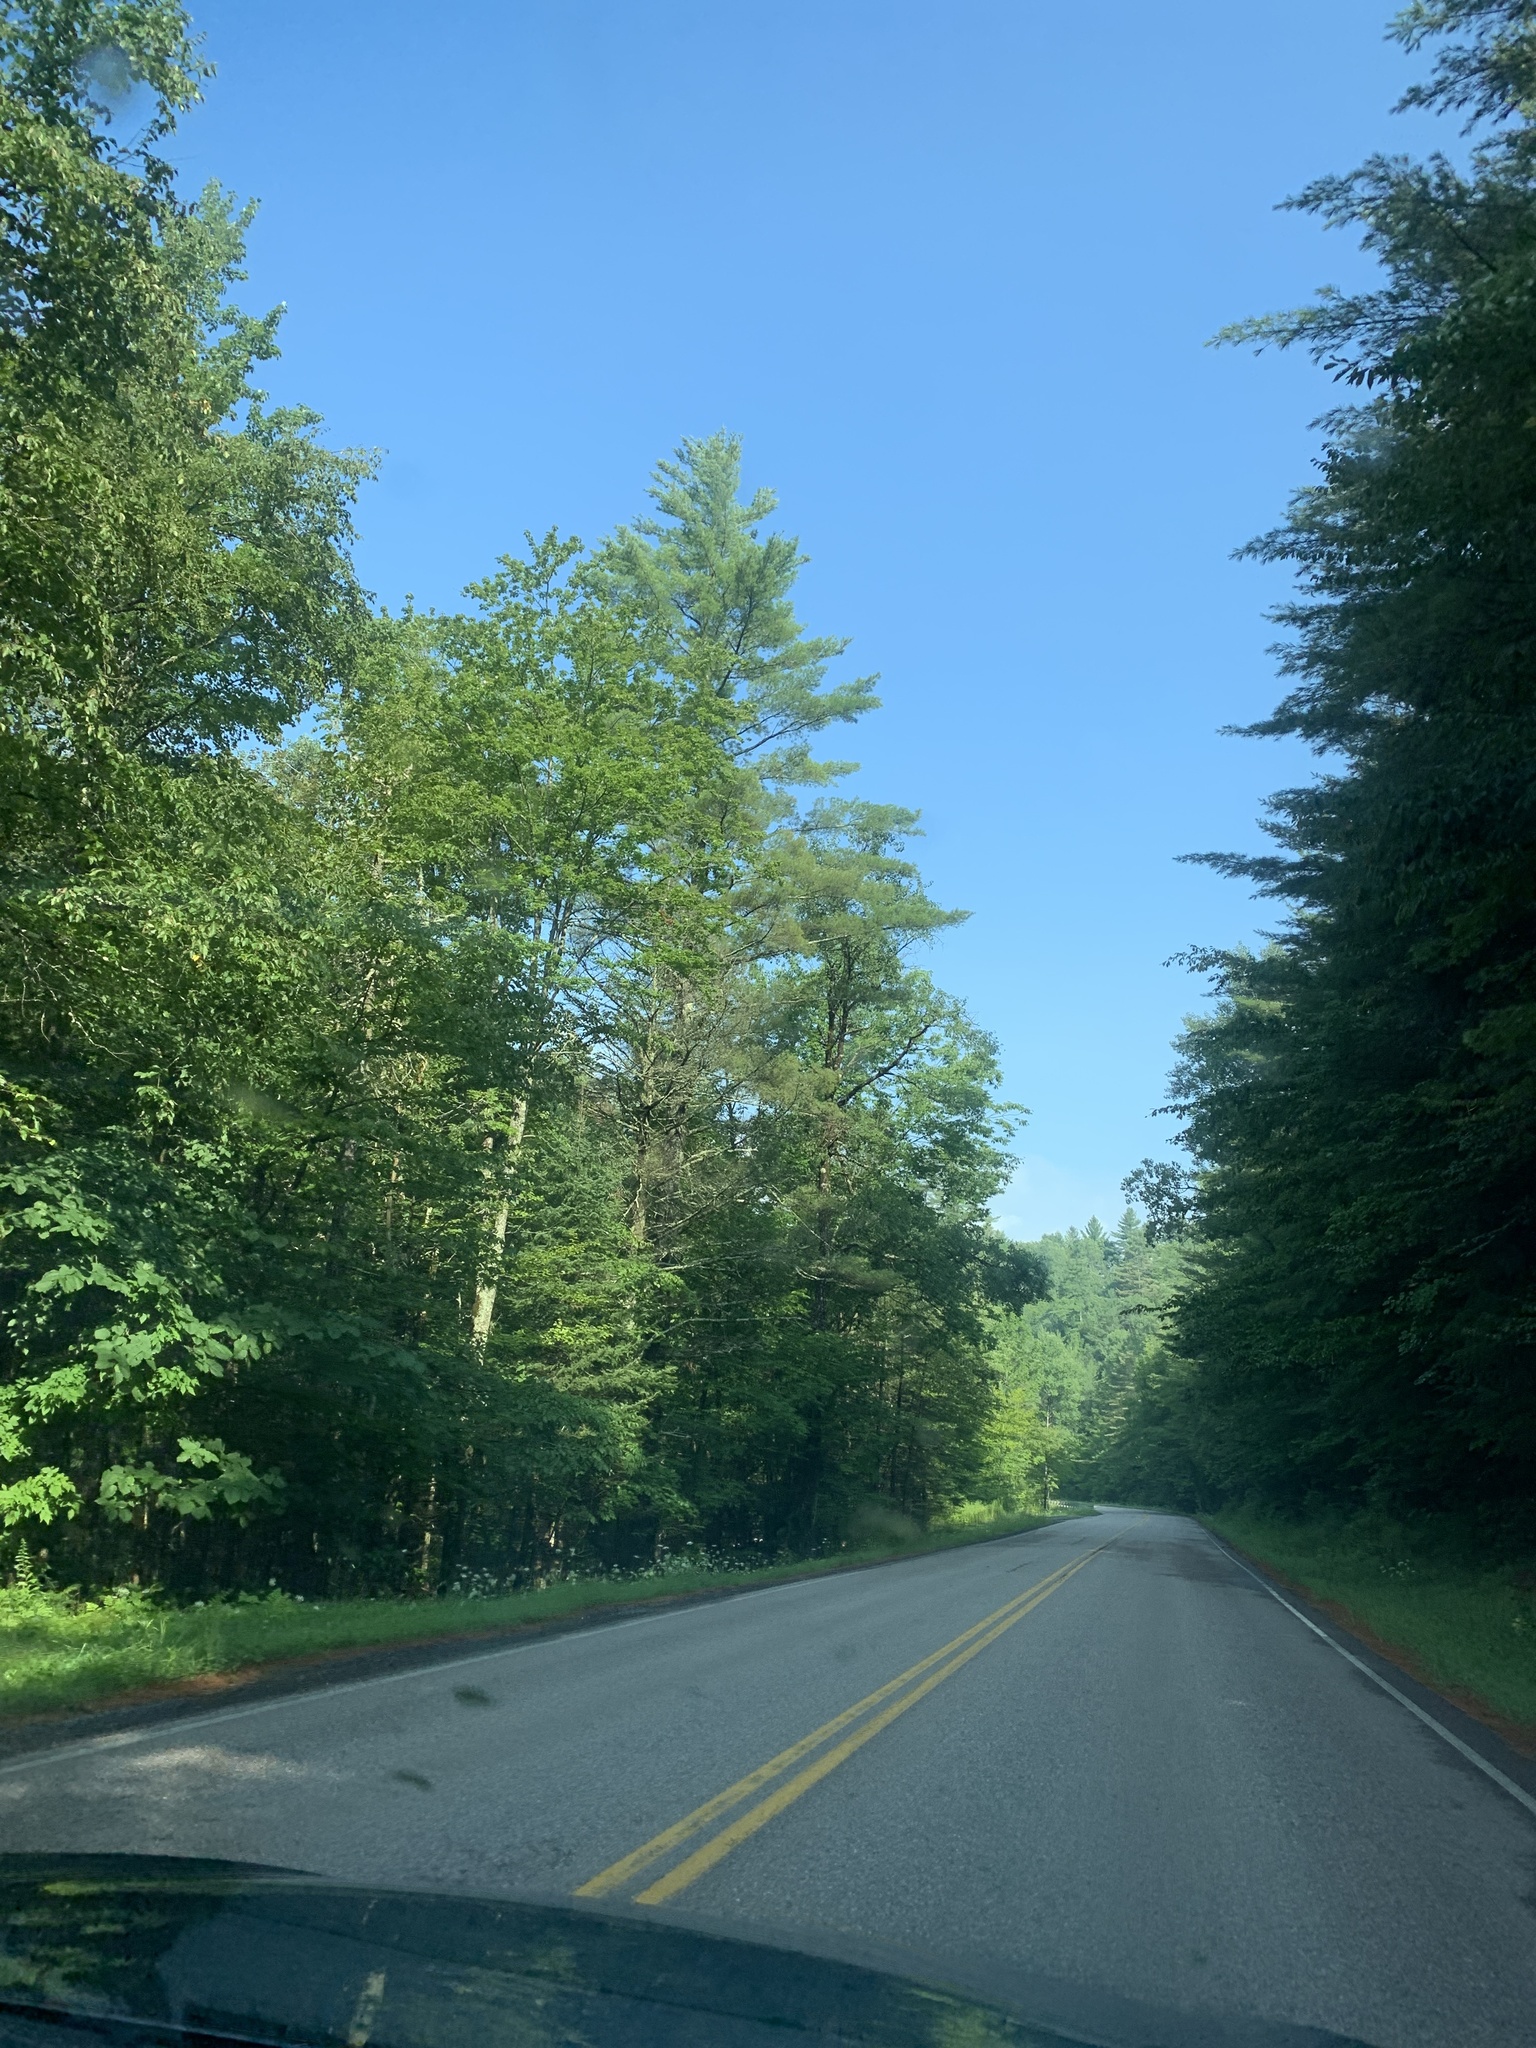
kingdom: Plantae
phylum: Tracheophyta
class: Pinopsida
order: Pinales
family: Pinaceae
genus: Pinus
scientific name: Pinus strobus
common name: Weymouth pine
